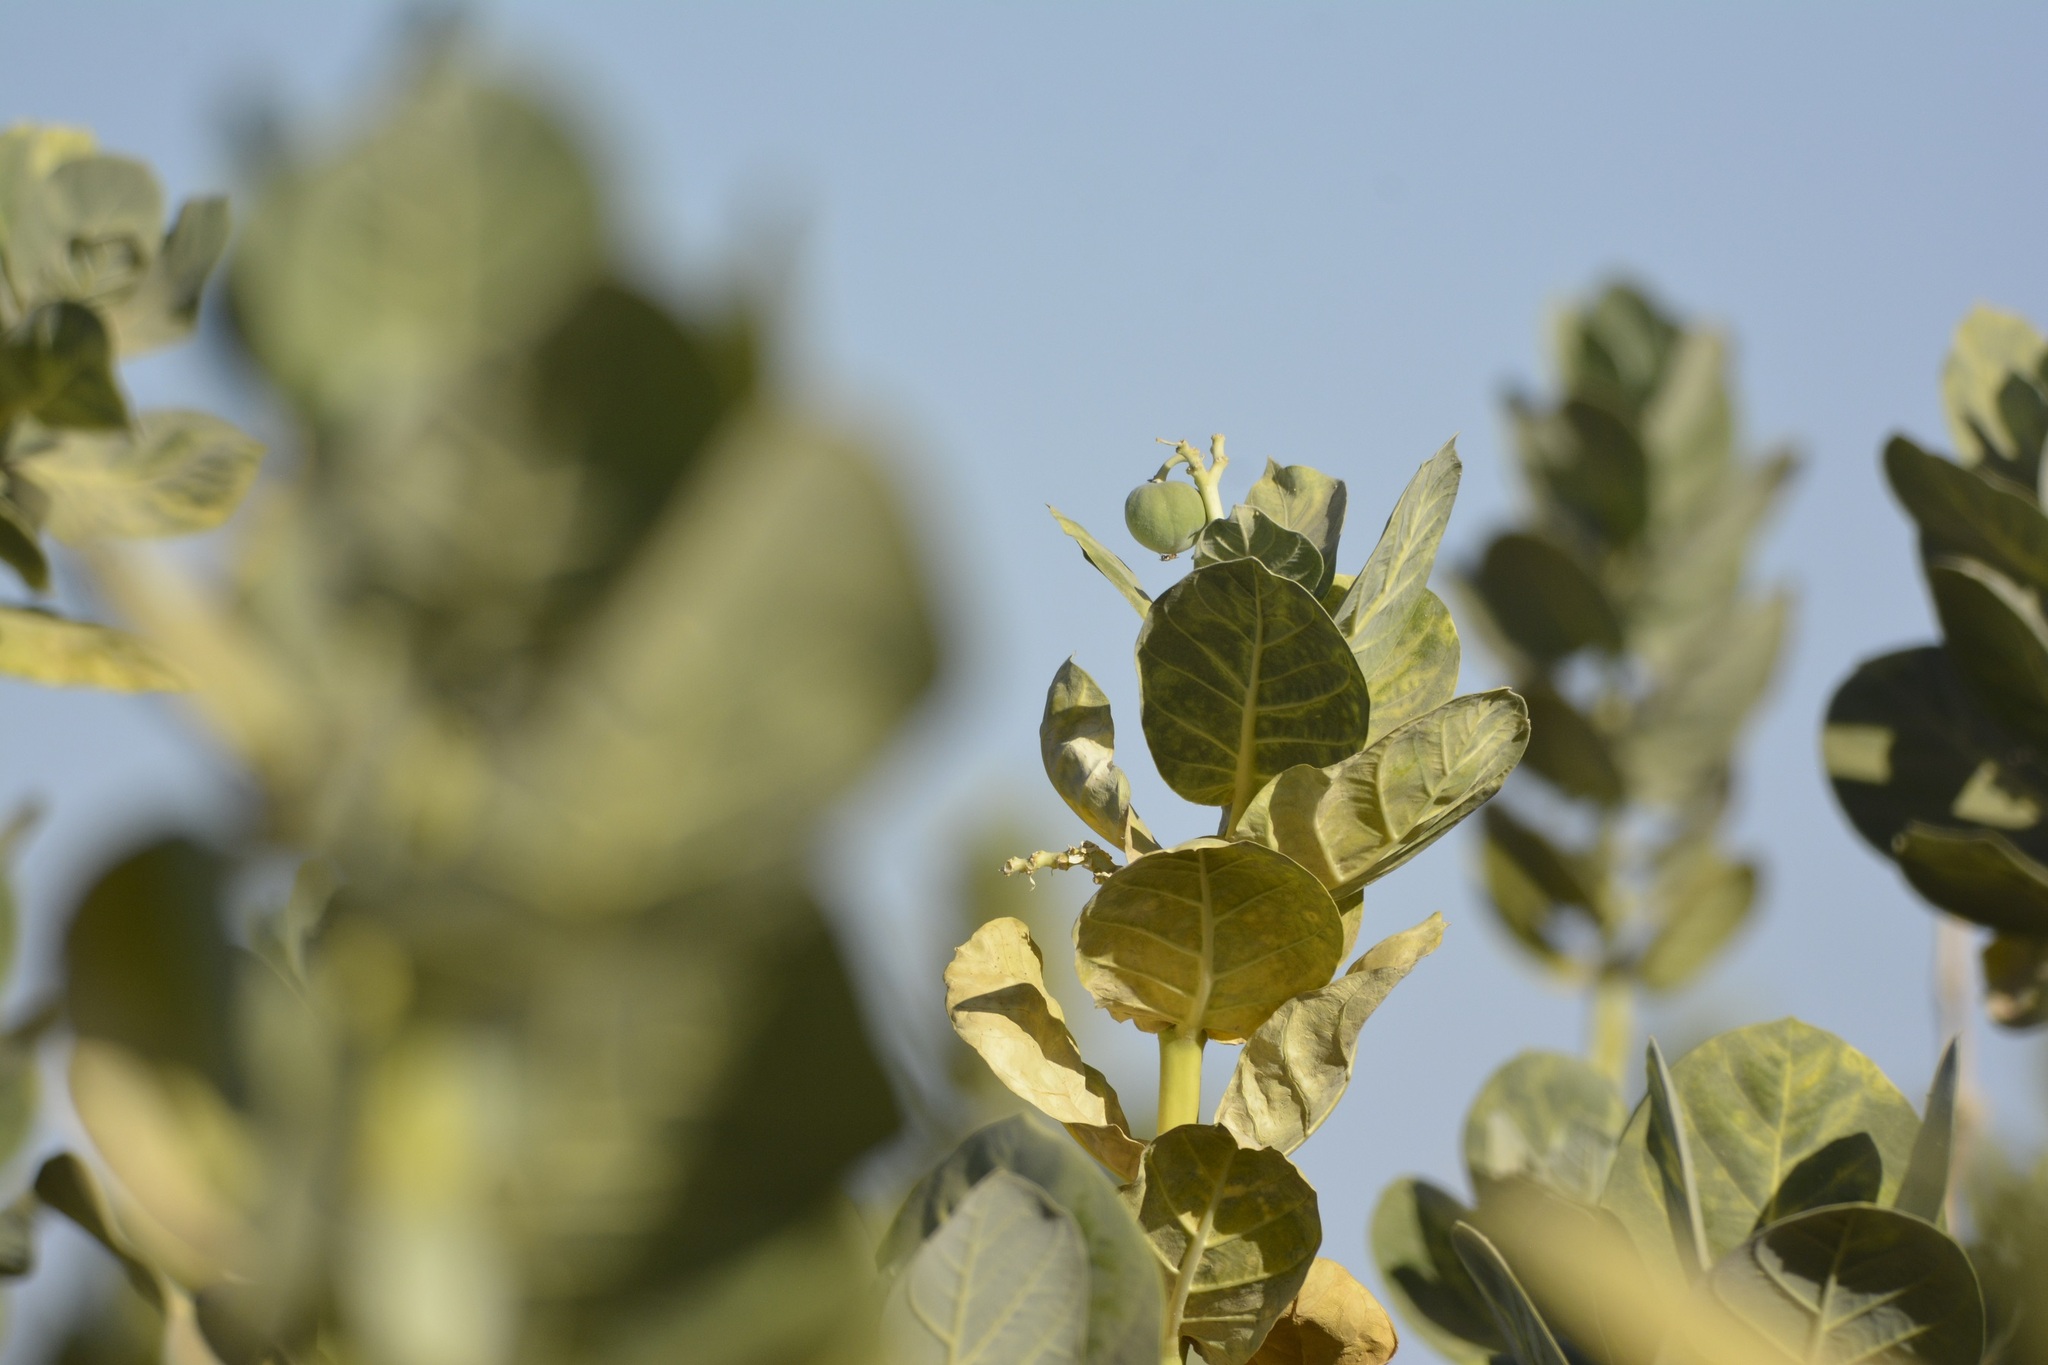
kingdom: Plantae
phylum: Tracheophyta
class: Magnoliopsida
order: Gentianales
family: Apocynaceae
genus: Calotropis
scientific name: Calotropis procera
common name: Roostertree
